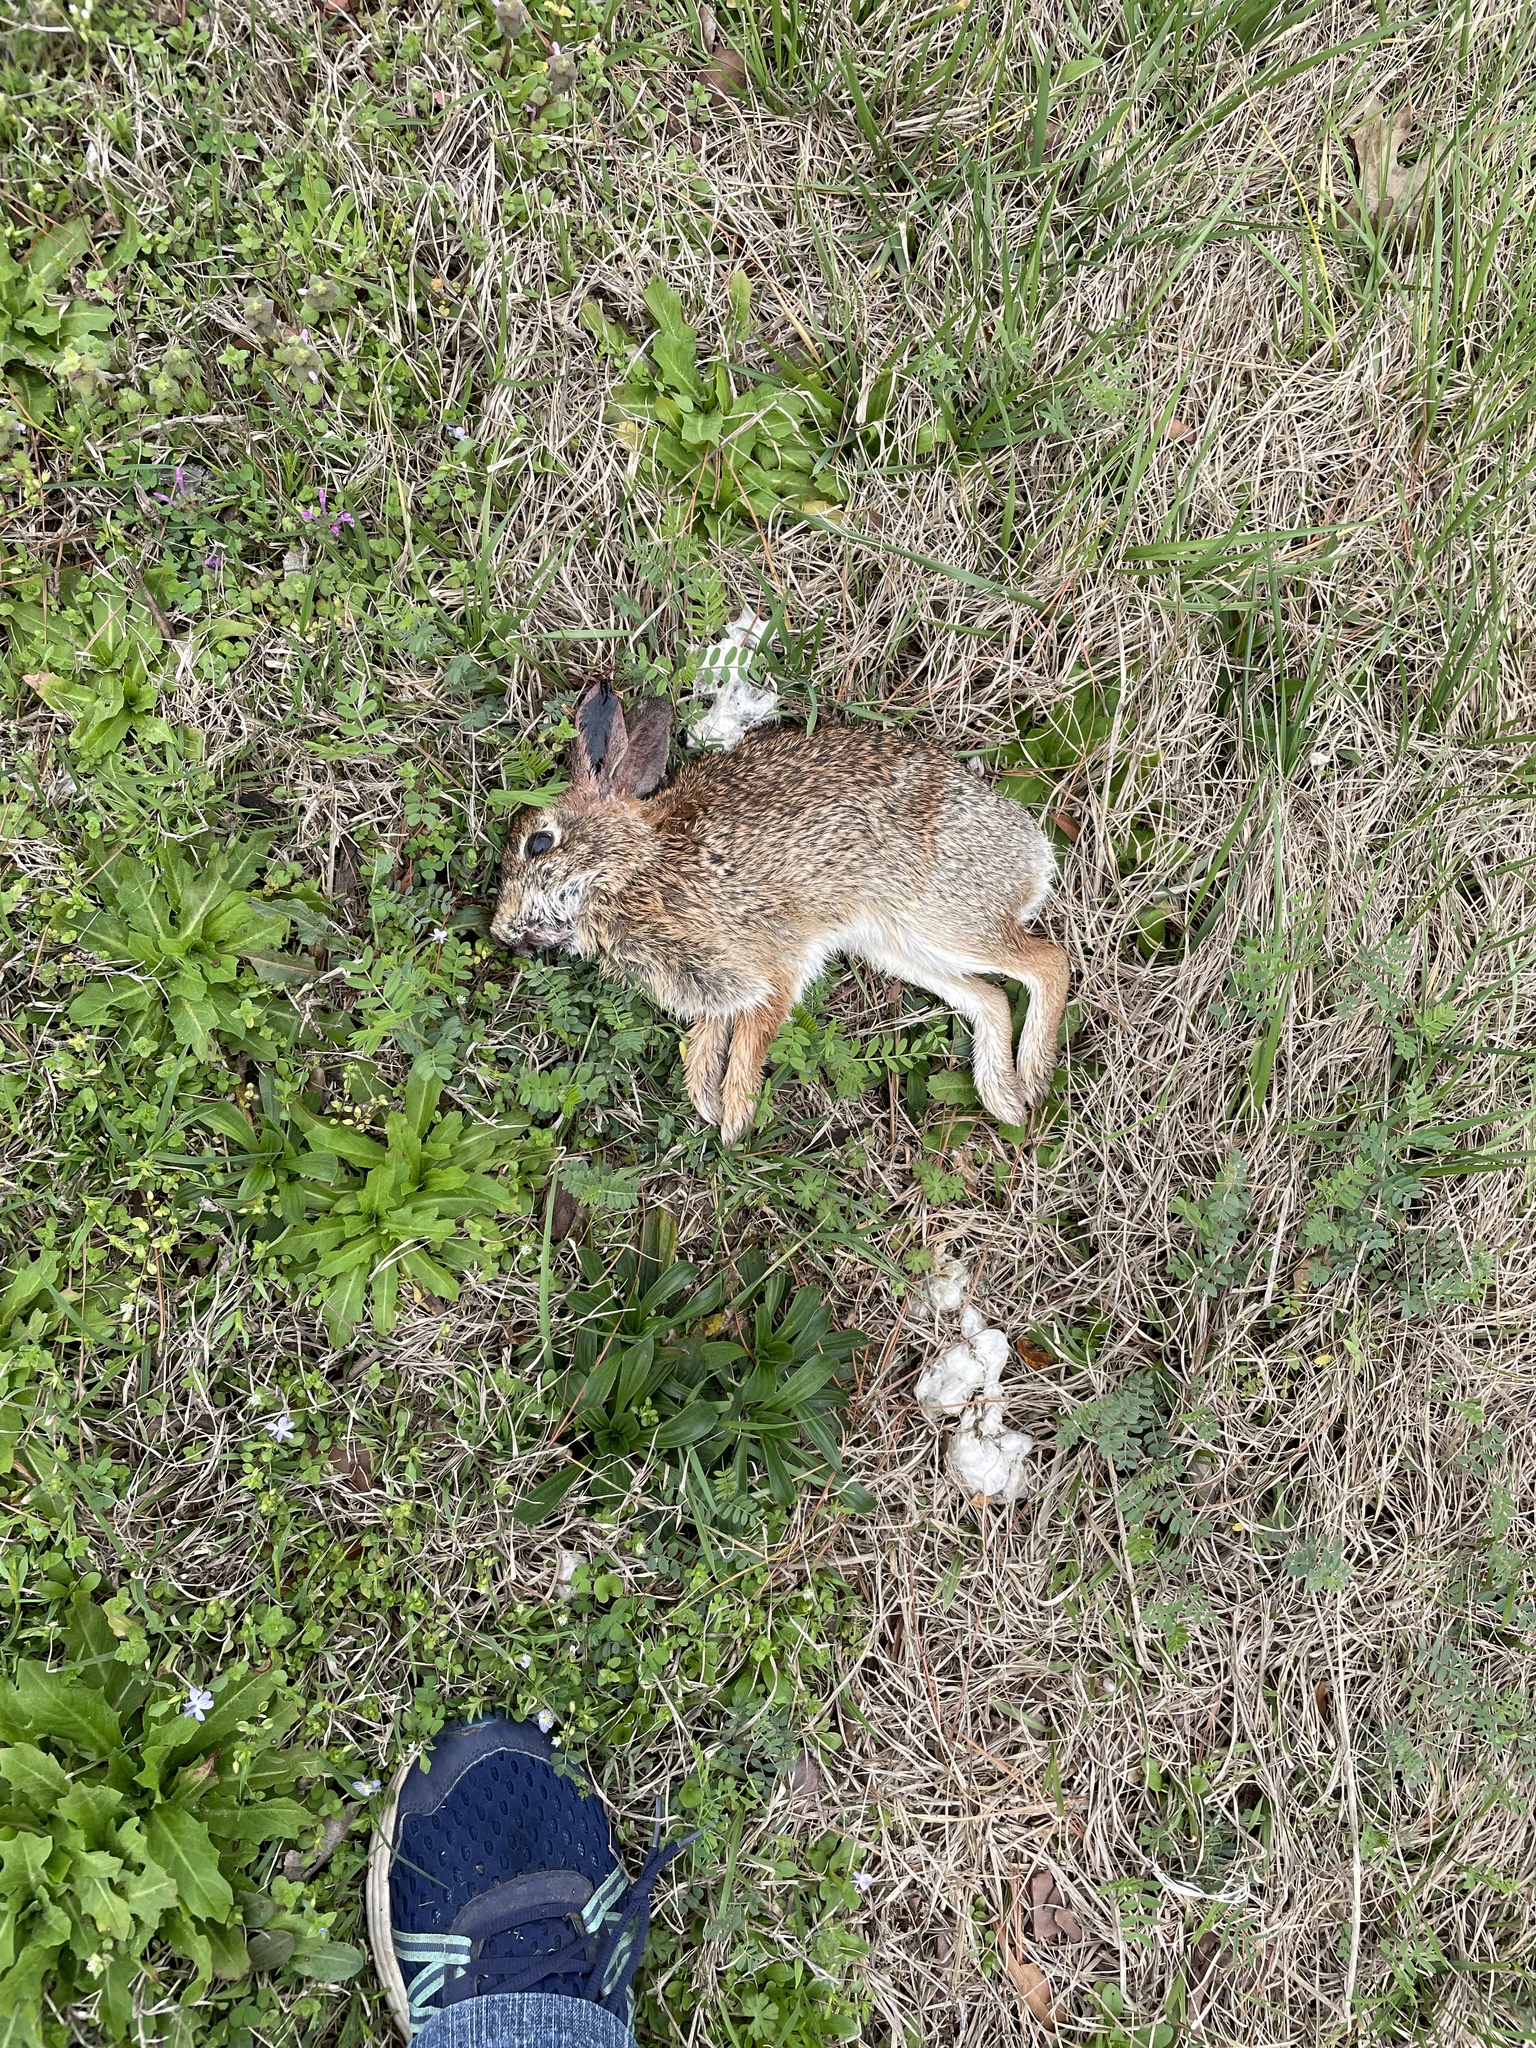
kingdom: Animalia
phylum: Chordata
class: Mammalia
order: Lagomorpha
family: Leporidae
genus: Sylvilagus
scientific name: Sylvilagus floridanus
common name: Eastern cottontail
